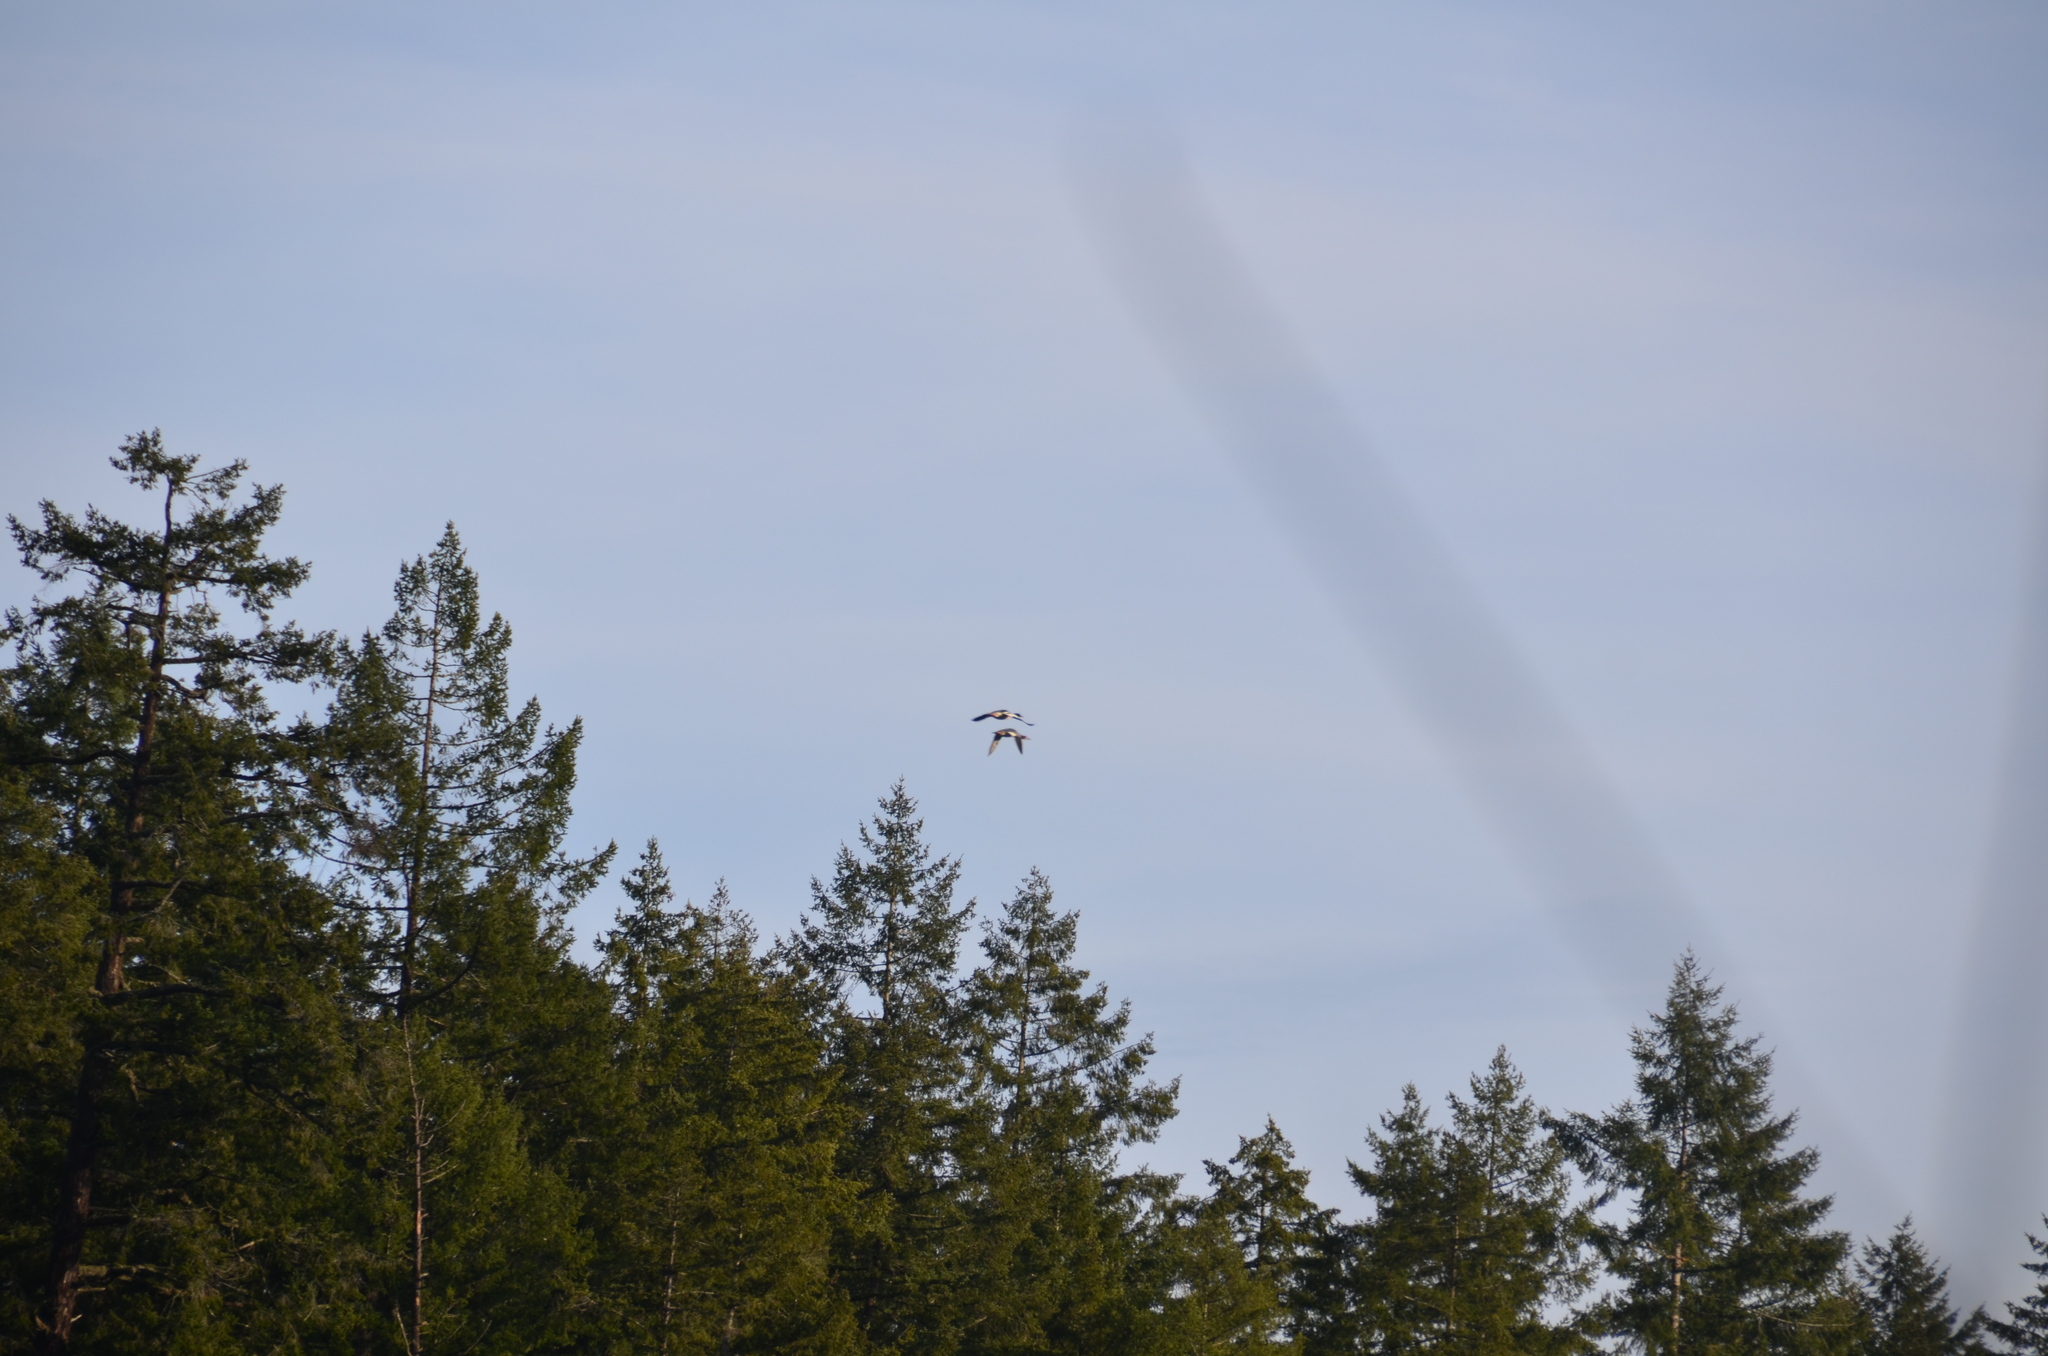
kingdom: Animalia
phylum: Chordata
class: Aves
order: Anseriformes
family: Anatidae
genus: Mergus
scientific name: Mergus merganser
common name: Common merganser
